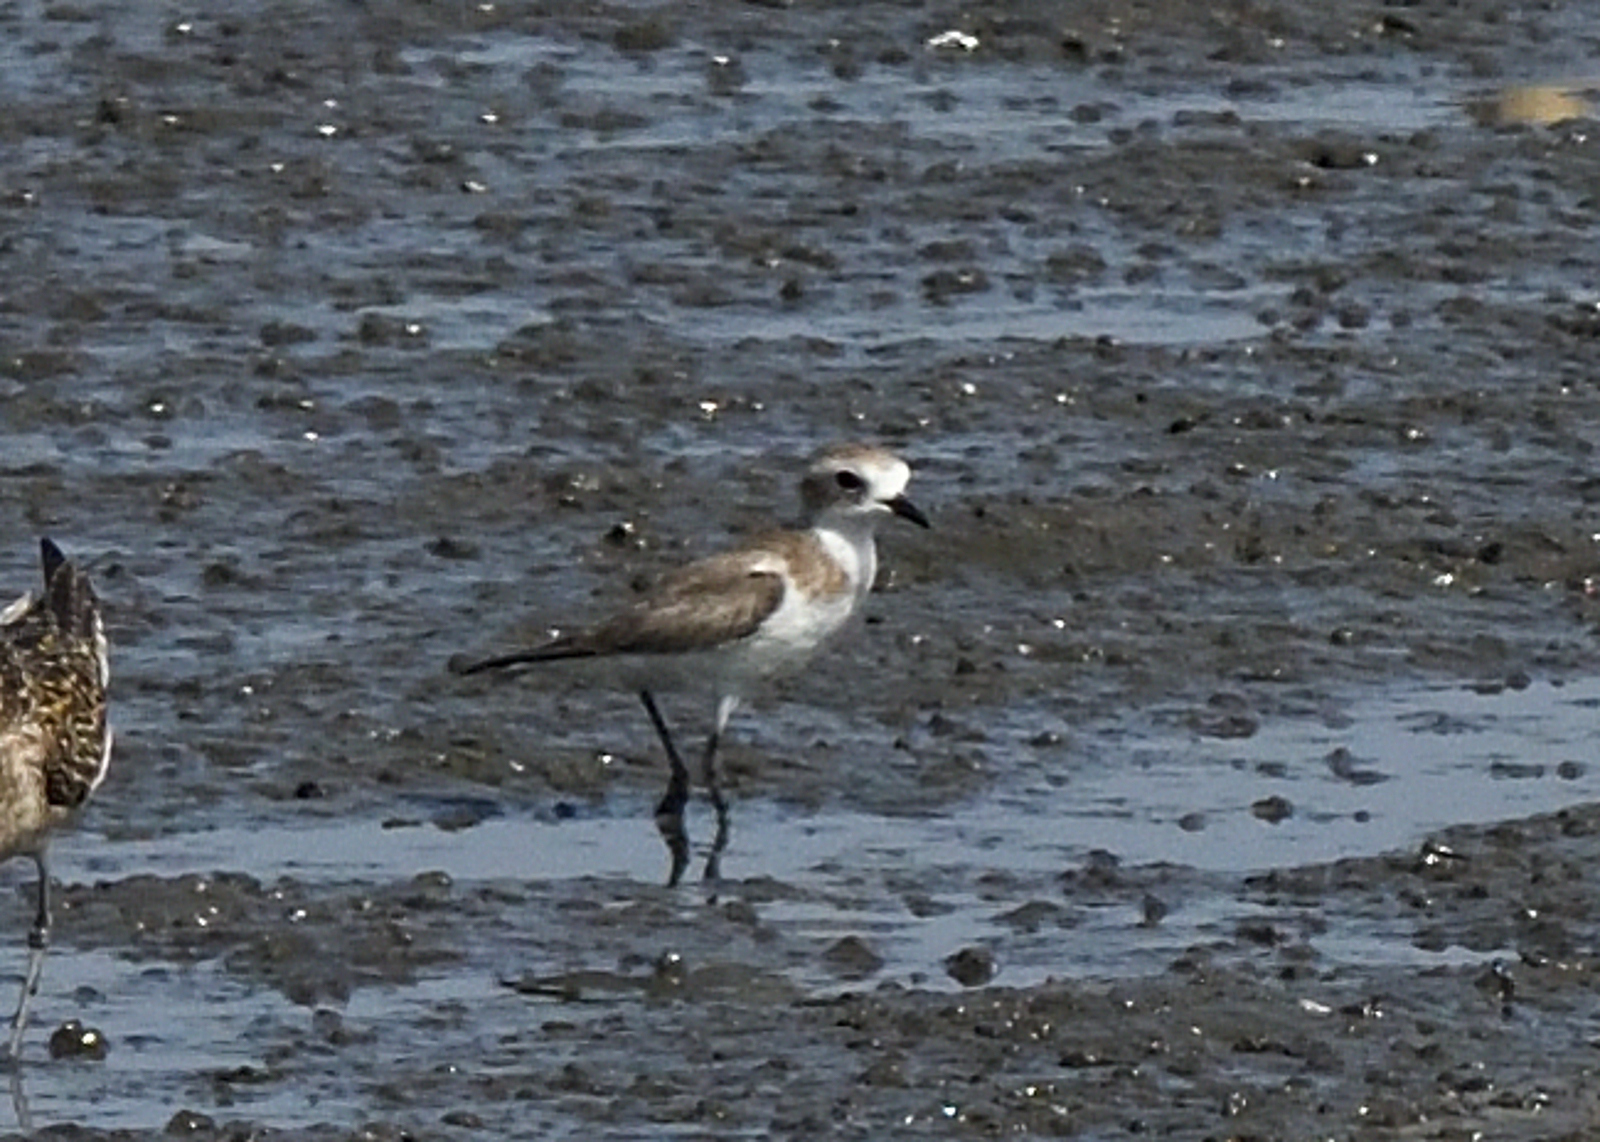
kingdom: Animalia
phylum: Chordata
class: Aves
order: Charadriiformes
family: Charadriidae
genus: Anarhynchus
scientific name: Anarhynchus
